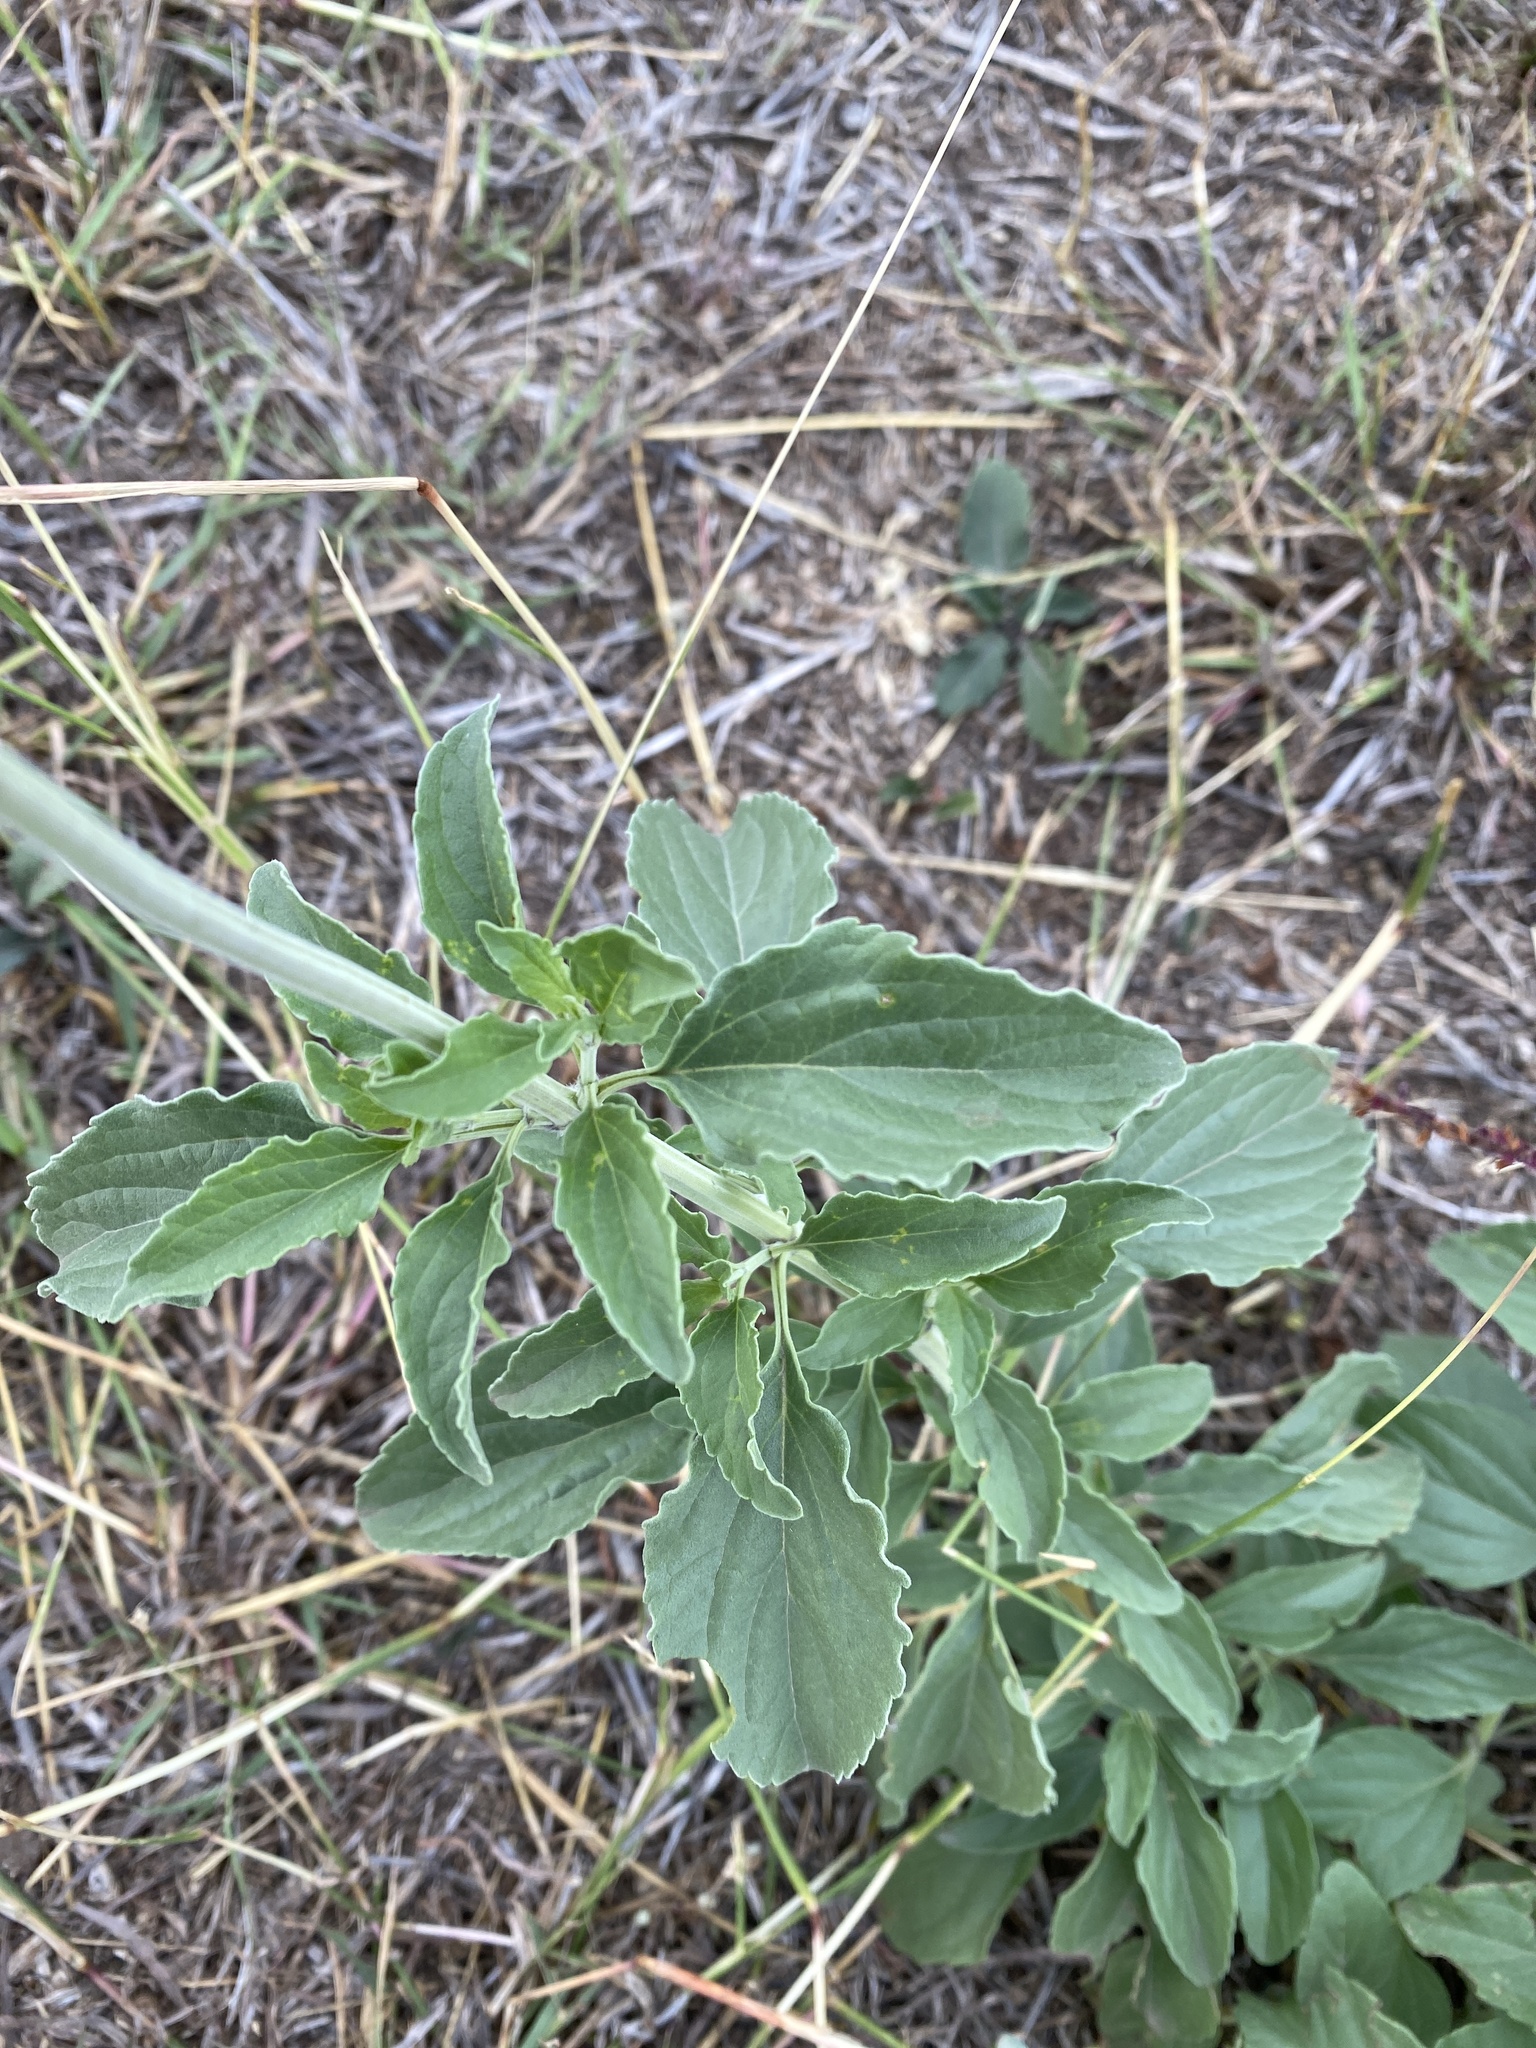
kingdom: Plantae
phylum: Tracheophyta
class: Magnoliopsida
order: Lamiales
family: Lamiaceae
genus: Salvia
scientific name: Salvia farinacea
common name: Mealy sage
